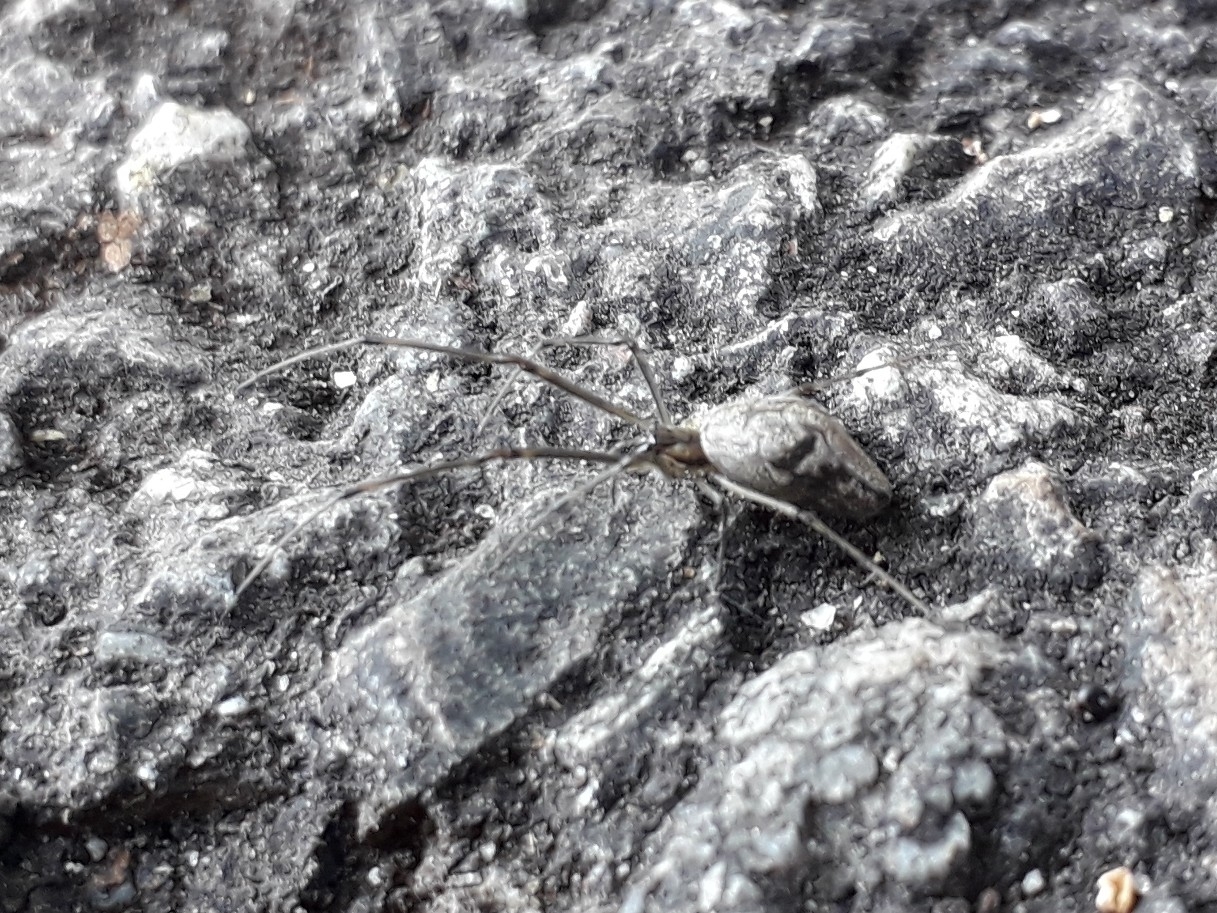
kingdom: Animalia
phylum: Arthropoda
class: Arachnida
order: Araneae
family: Tetragnathidae
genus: Tetragnatha
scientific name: Tetragnatha nigrita
